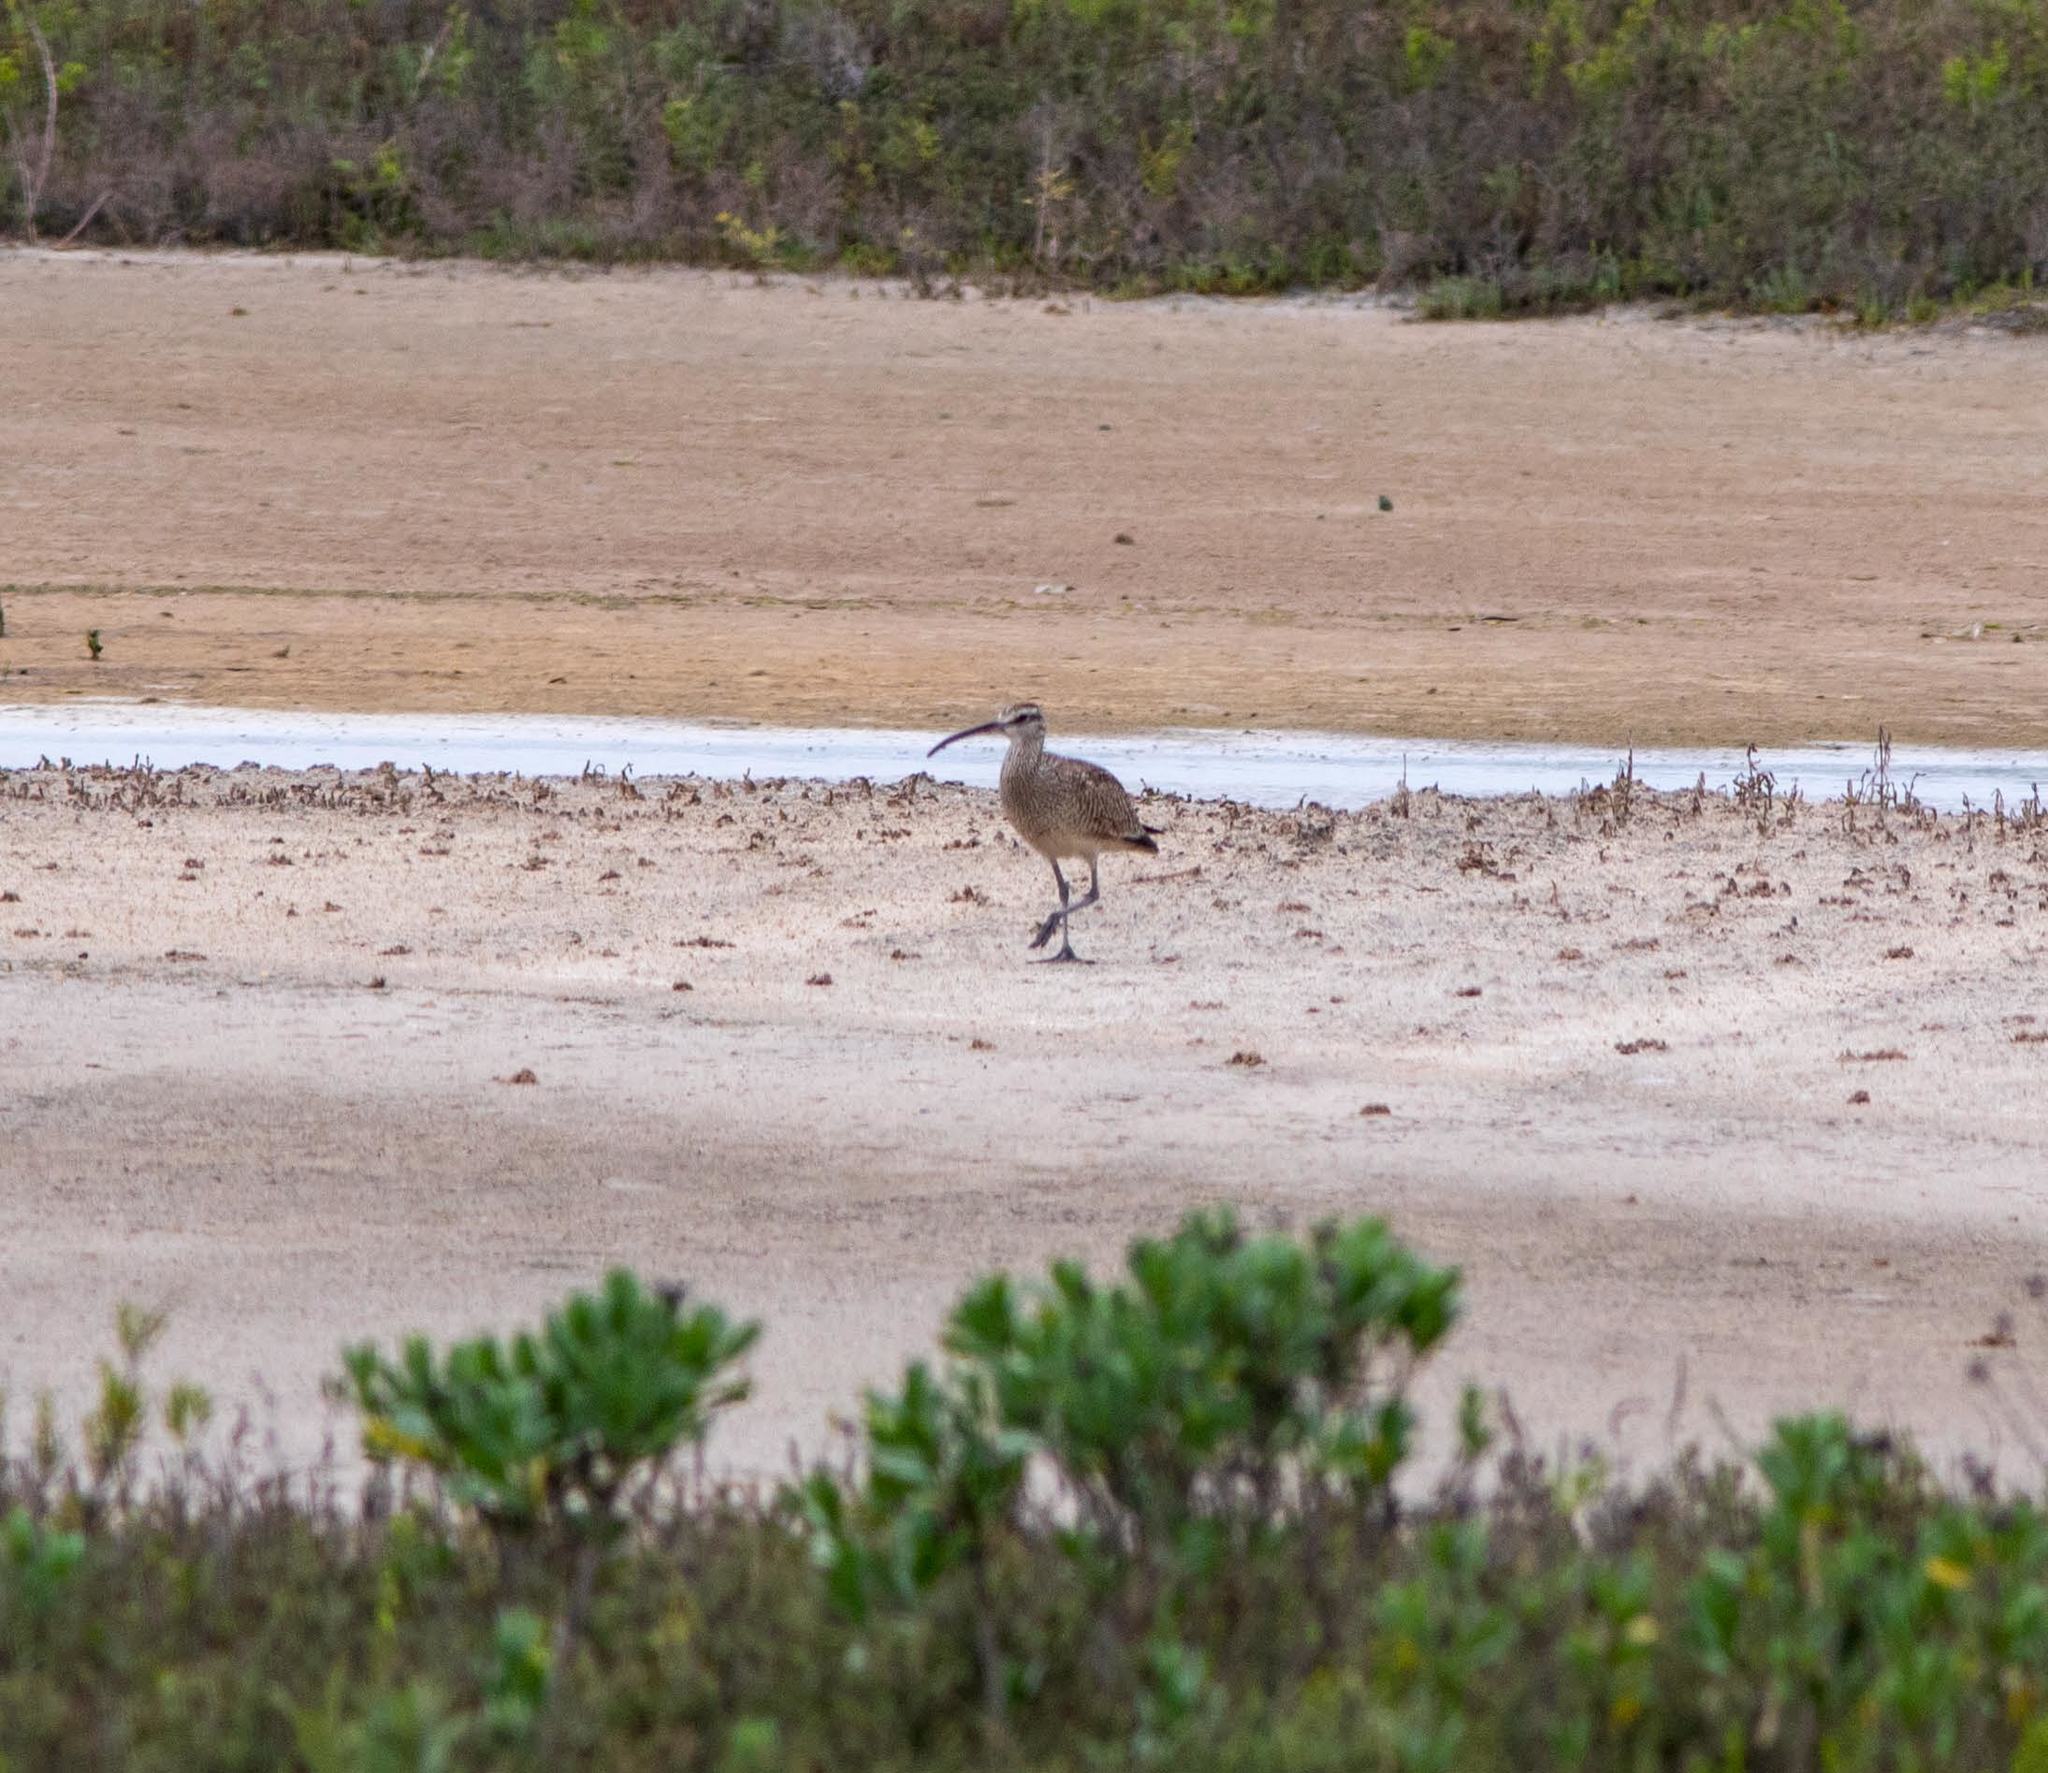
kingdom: Animalia
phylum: Chordata
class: Aves
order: Charadriiformes
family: Scolopacidae
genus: Numenius
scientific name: Numenius phaeopus
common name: Whimbrel
